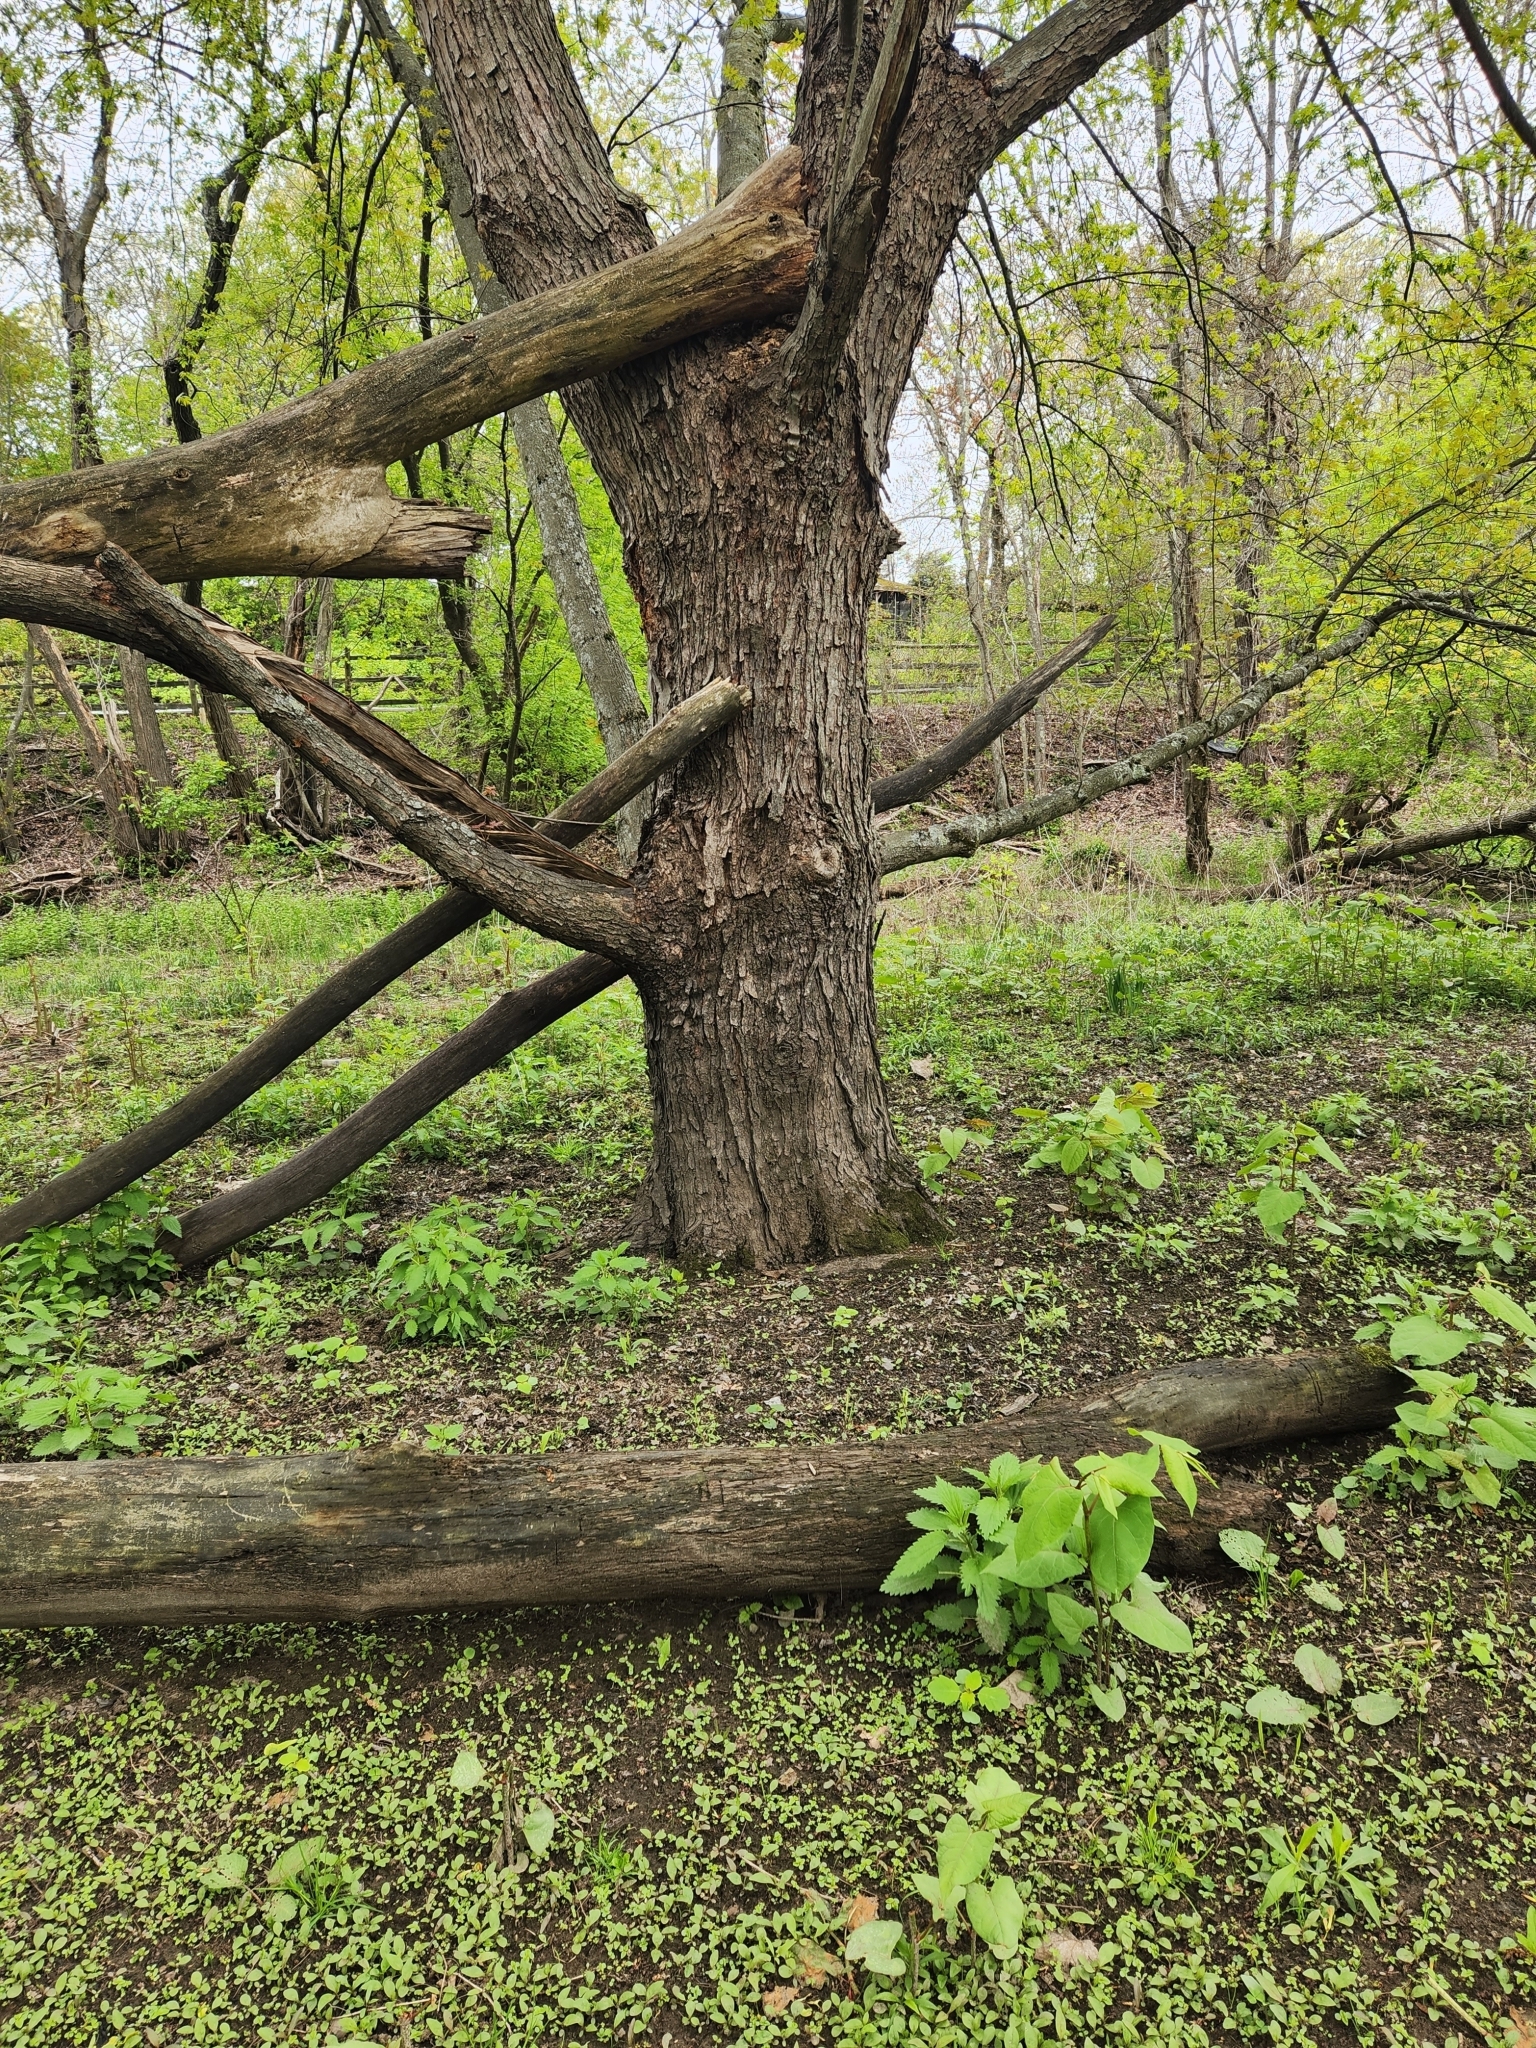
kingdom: Plantae
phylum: Tracheophyta
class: Magnoliopsida
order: Sapindales
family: Sapindaceae
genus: Acer
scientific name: Acer saccharinum
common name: Silver maple
